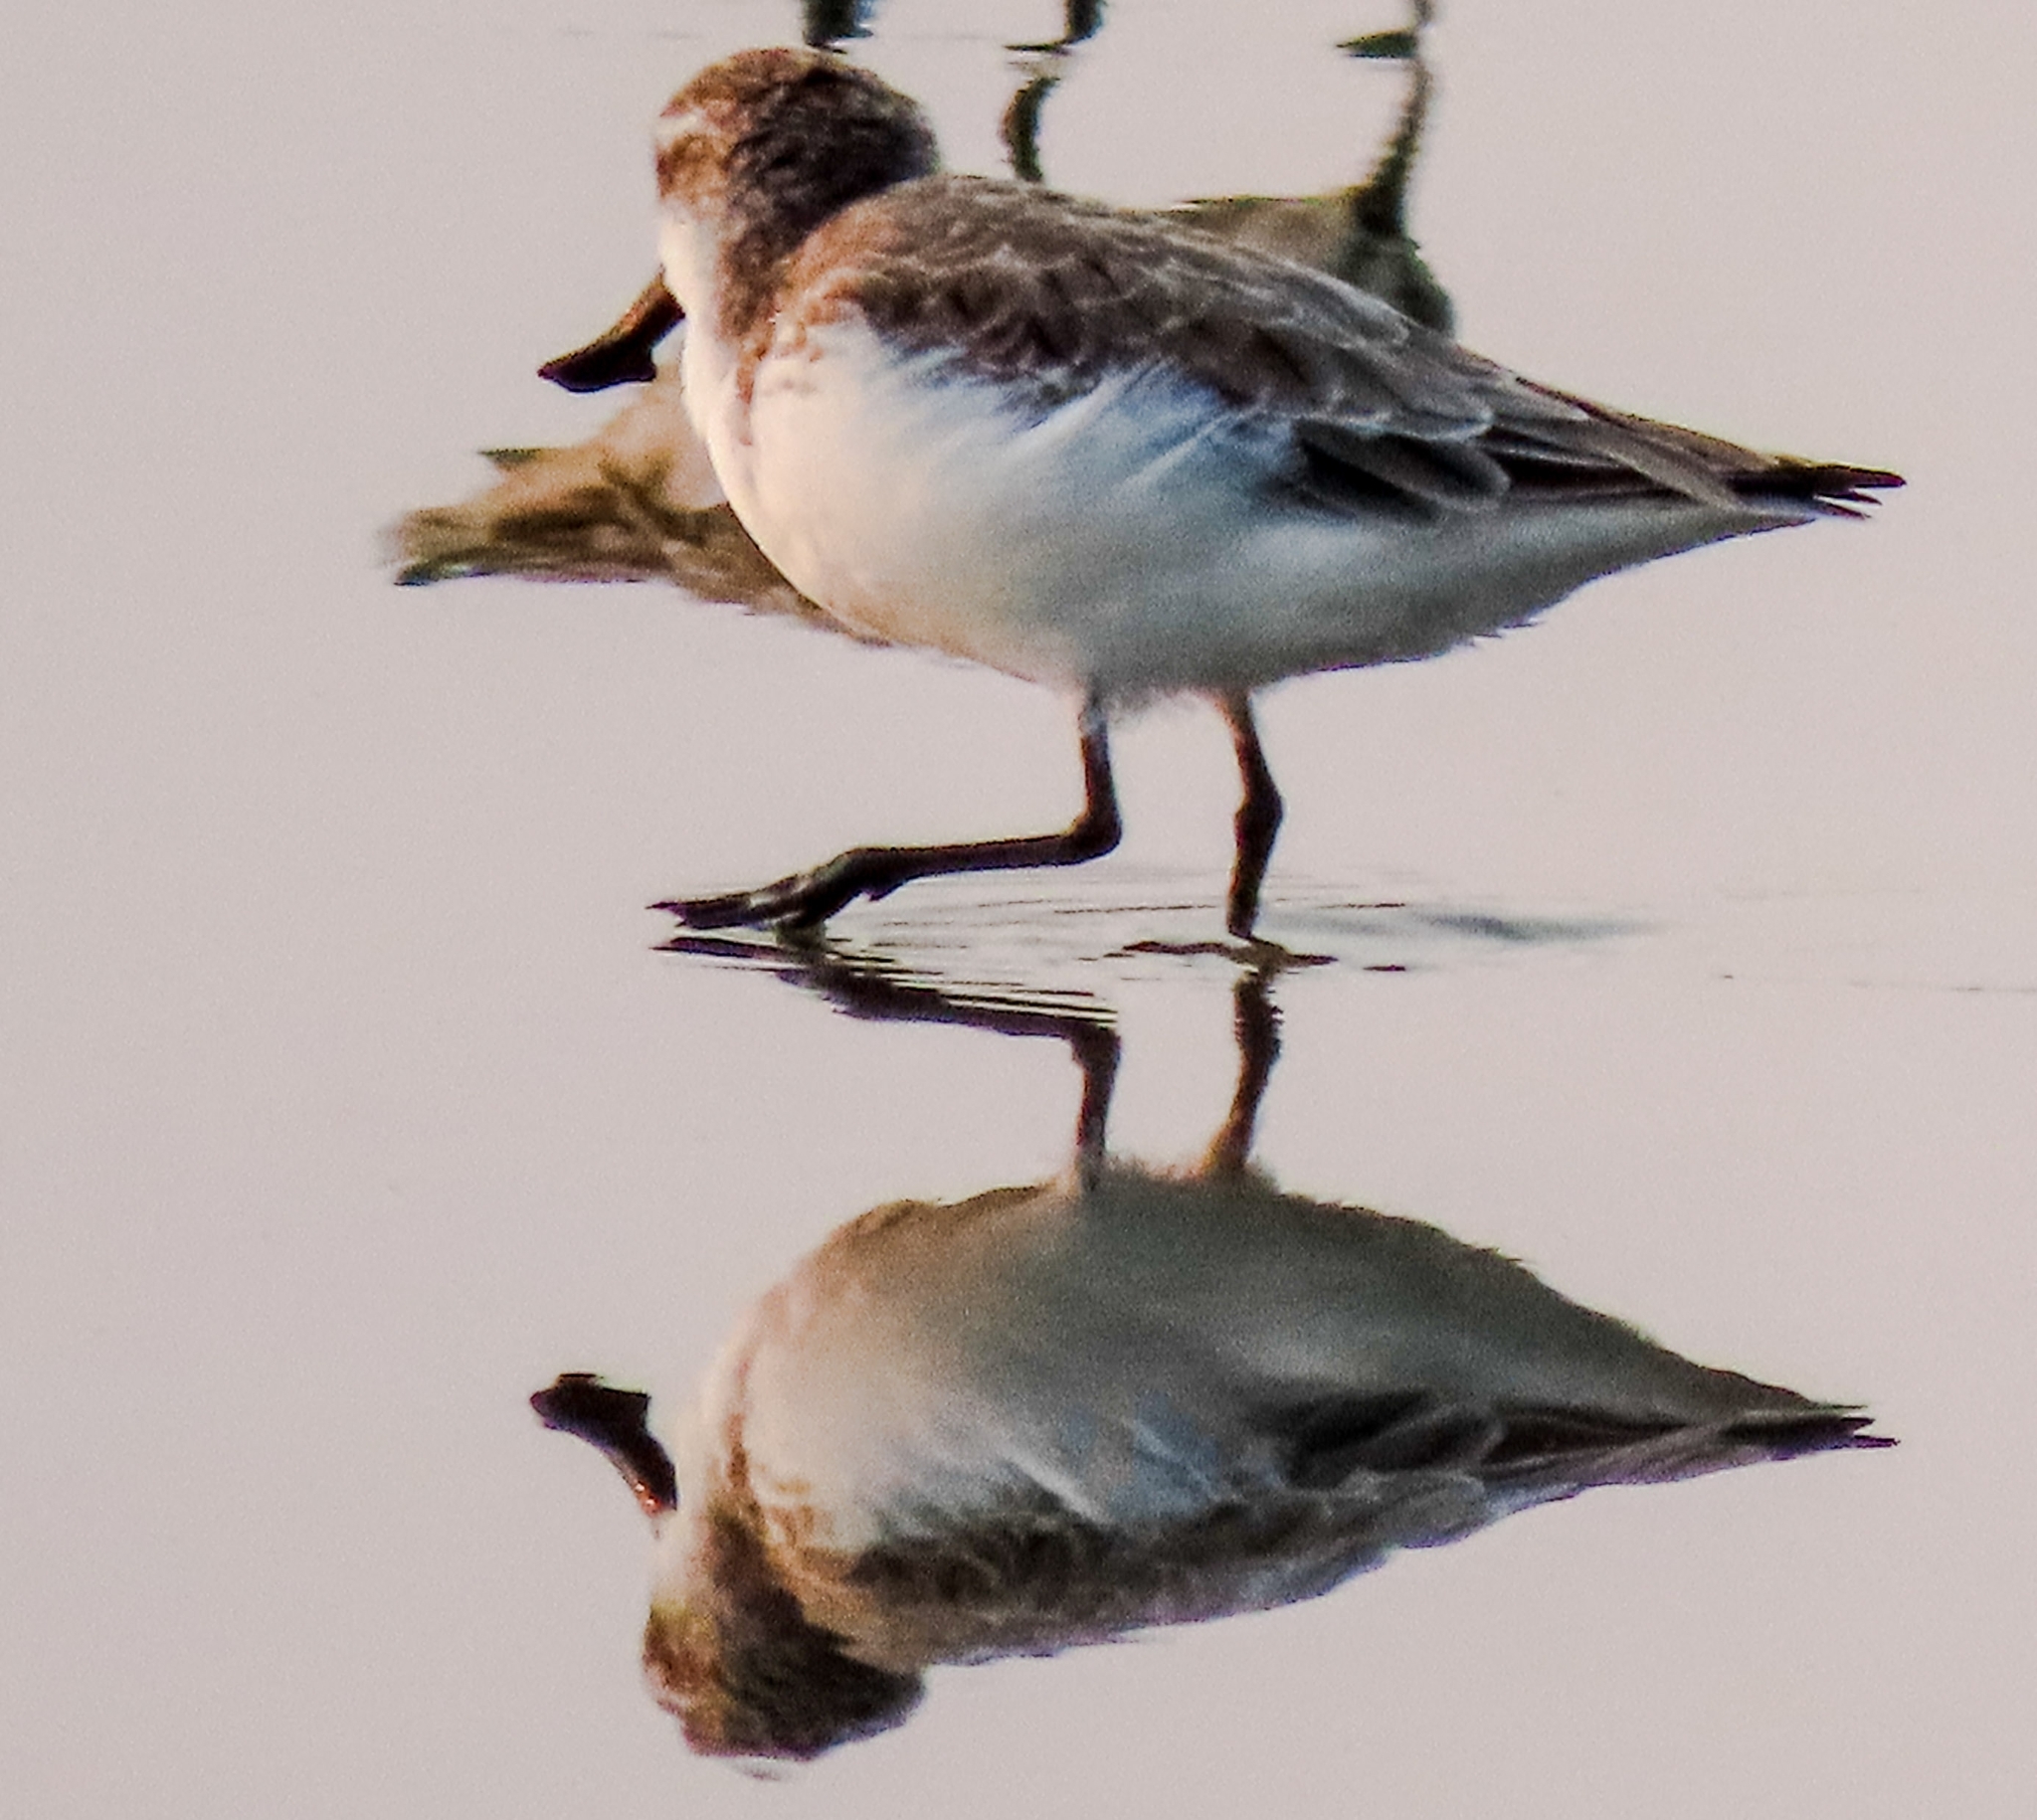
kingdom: Animalia
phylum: Chordata
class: Aves
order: Charadriiformes
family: Scolopacidae
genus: Calidris
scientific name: Calidris pygmaea
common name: Spoon-billed sandpiper
